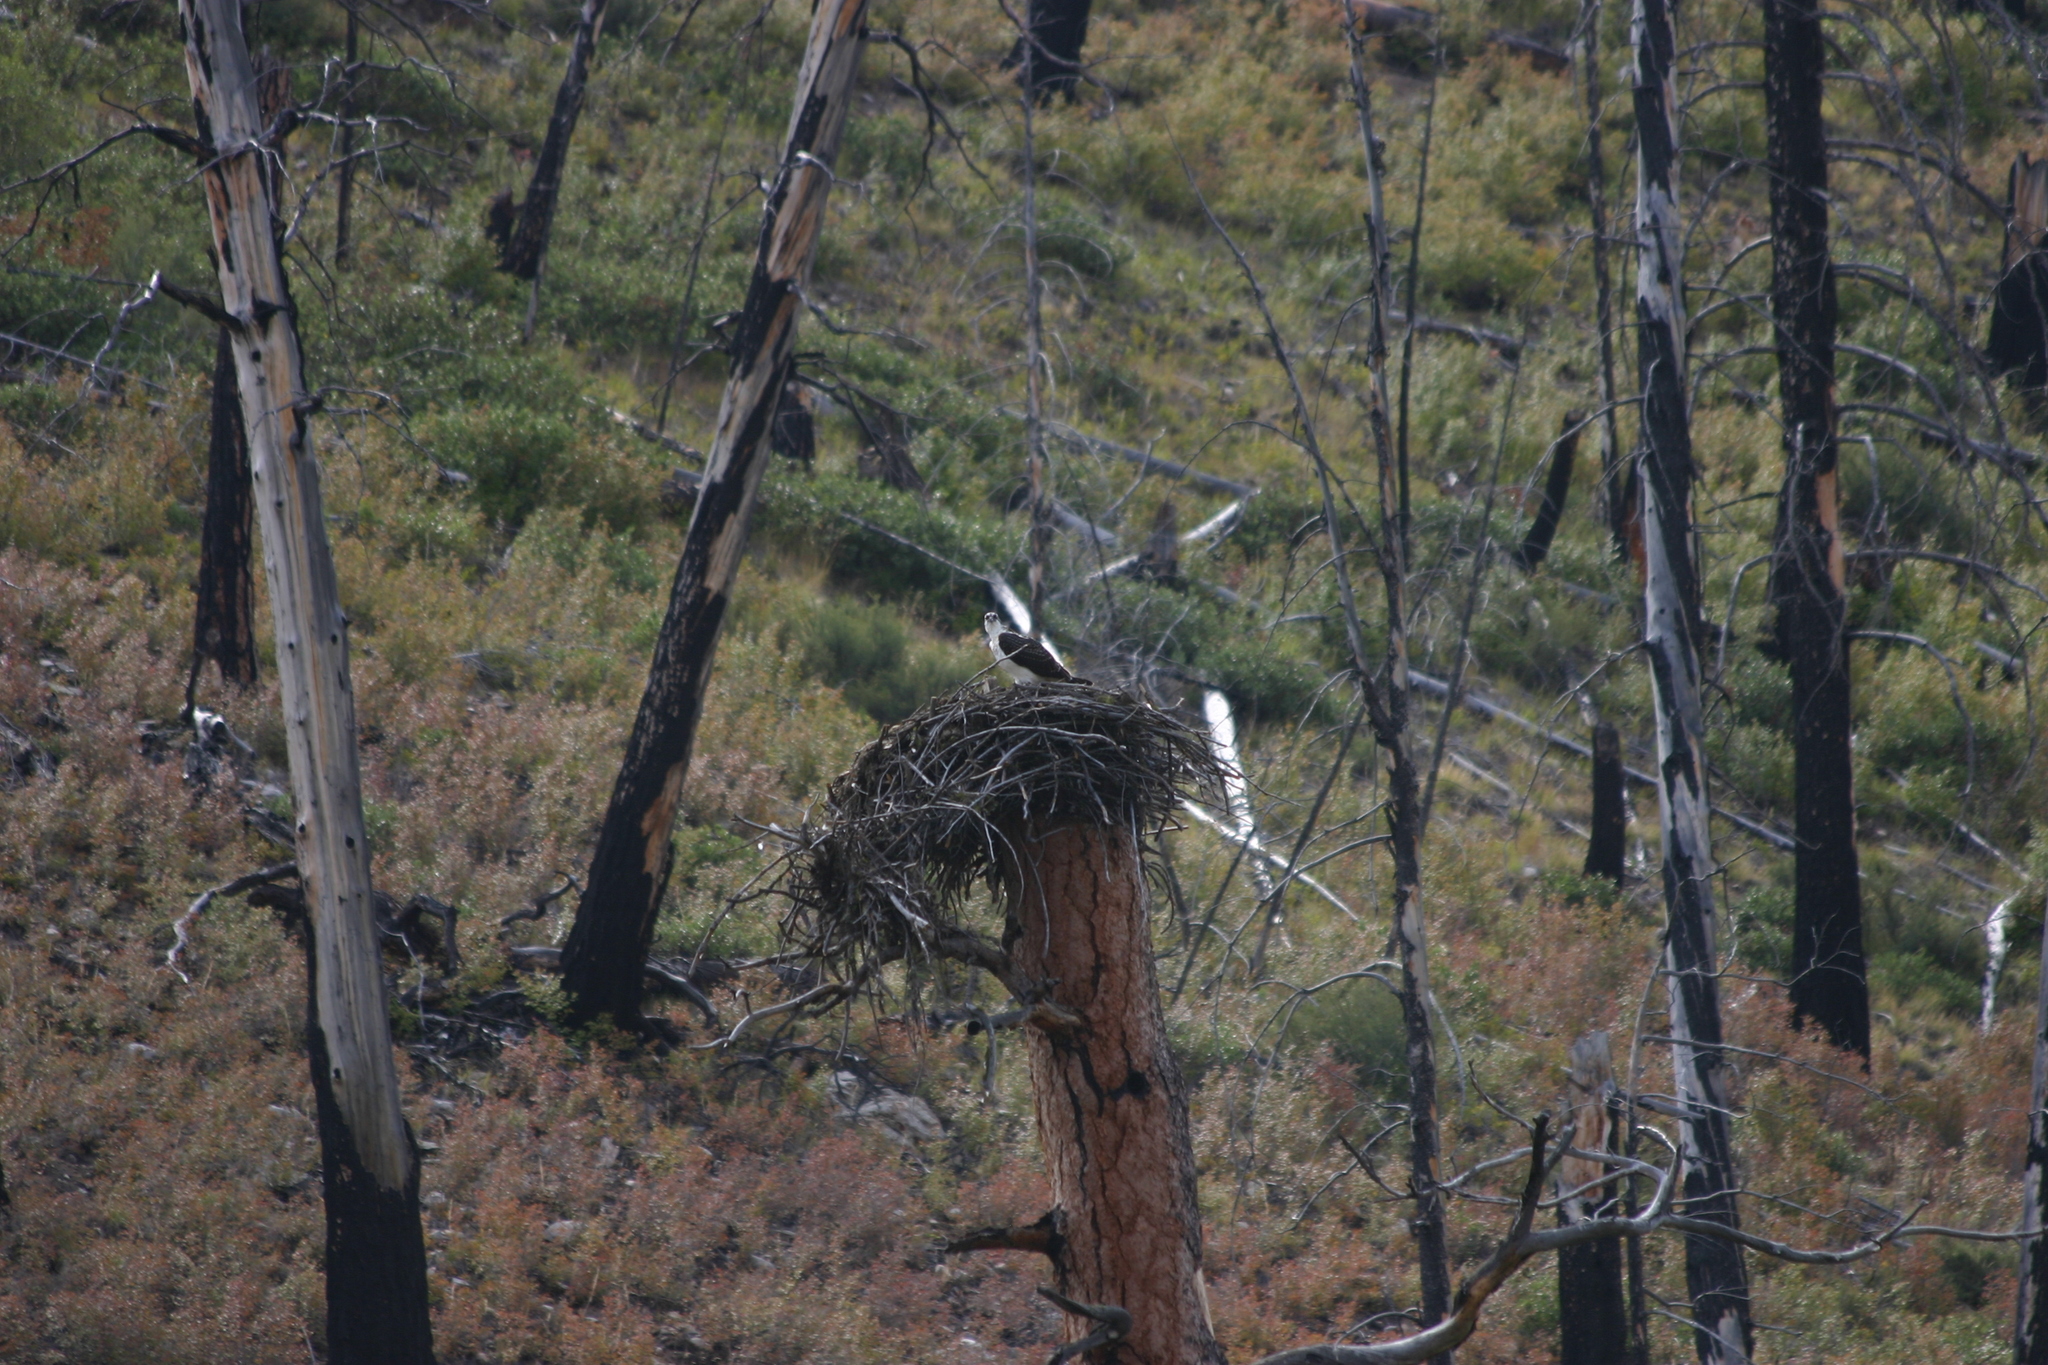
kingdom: Animalia
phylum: Chordata
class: Aves
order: Accipitriformes
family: Pandionidae
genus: Pandion
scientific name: Pandion haliaetus
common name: Osprey
